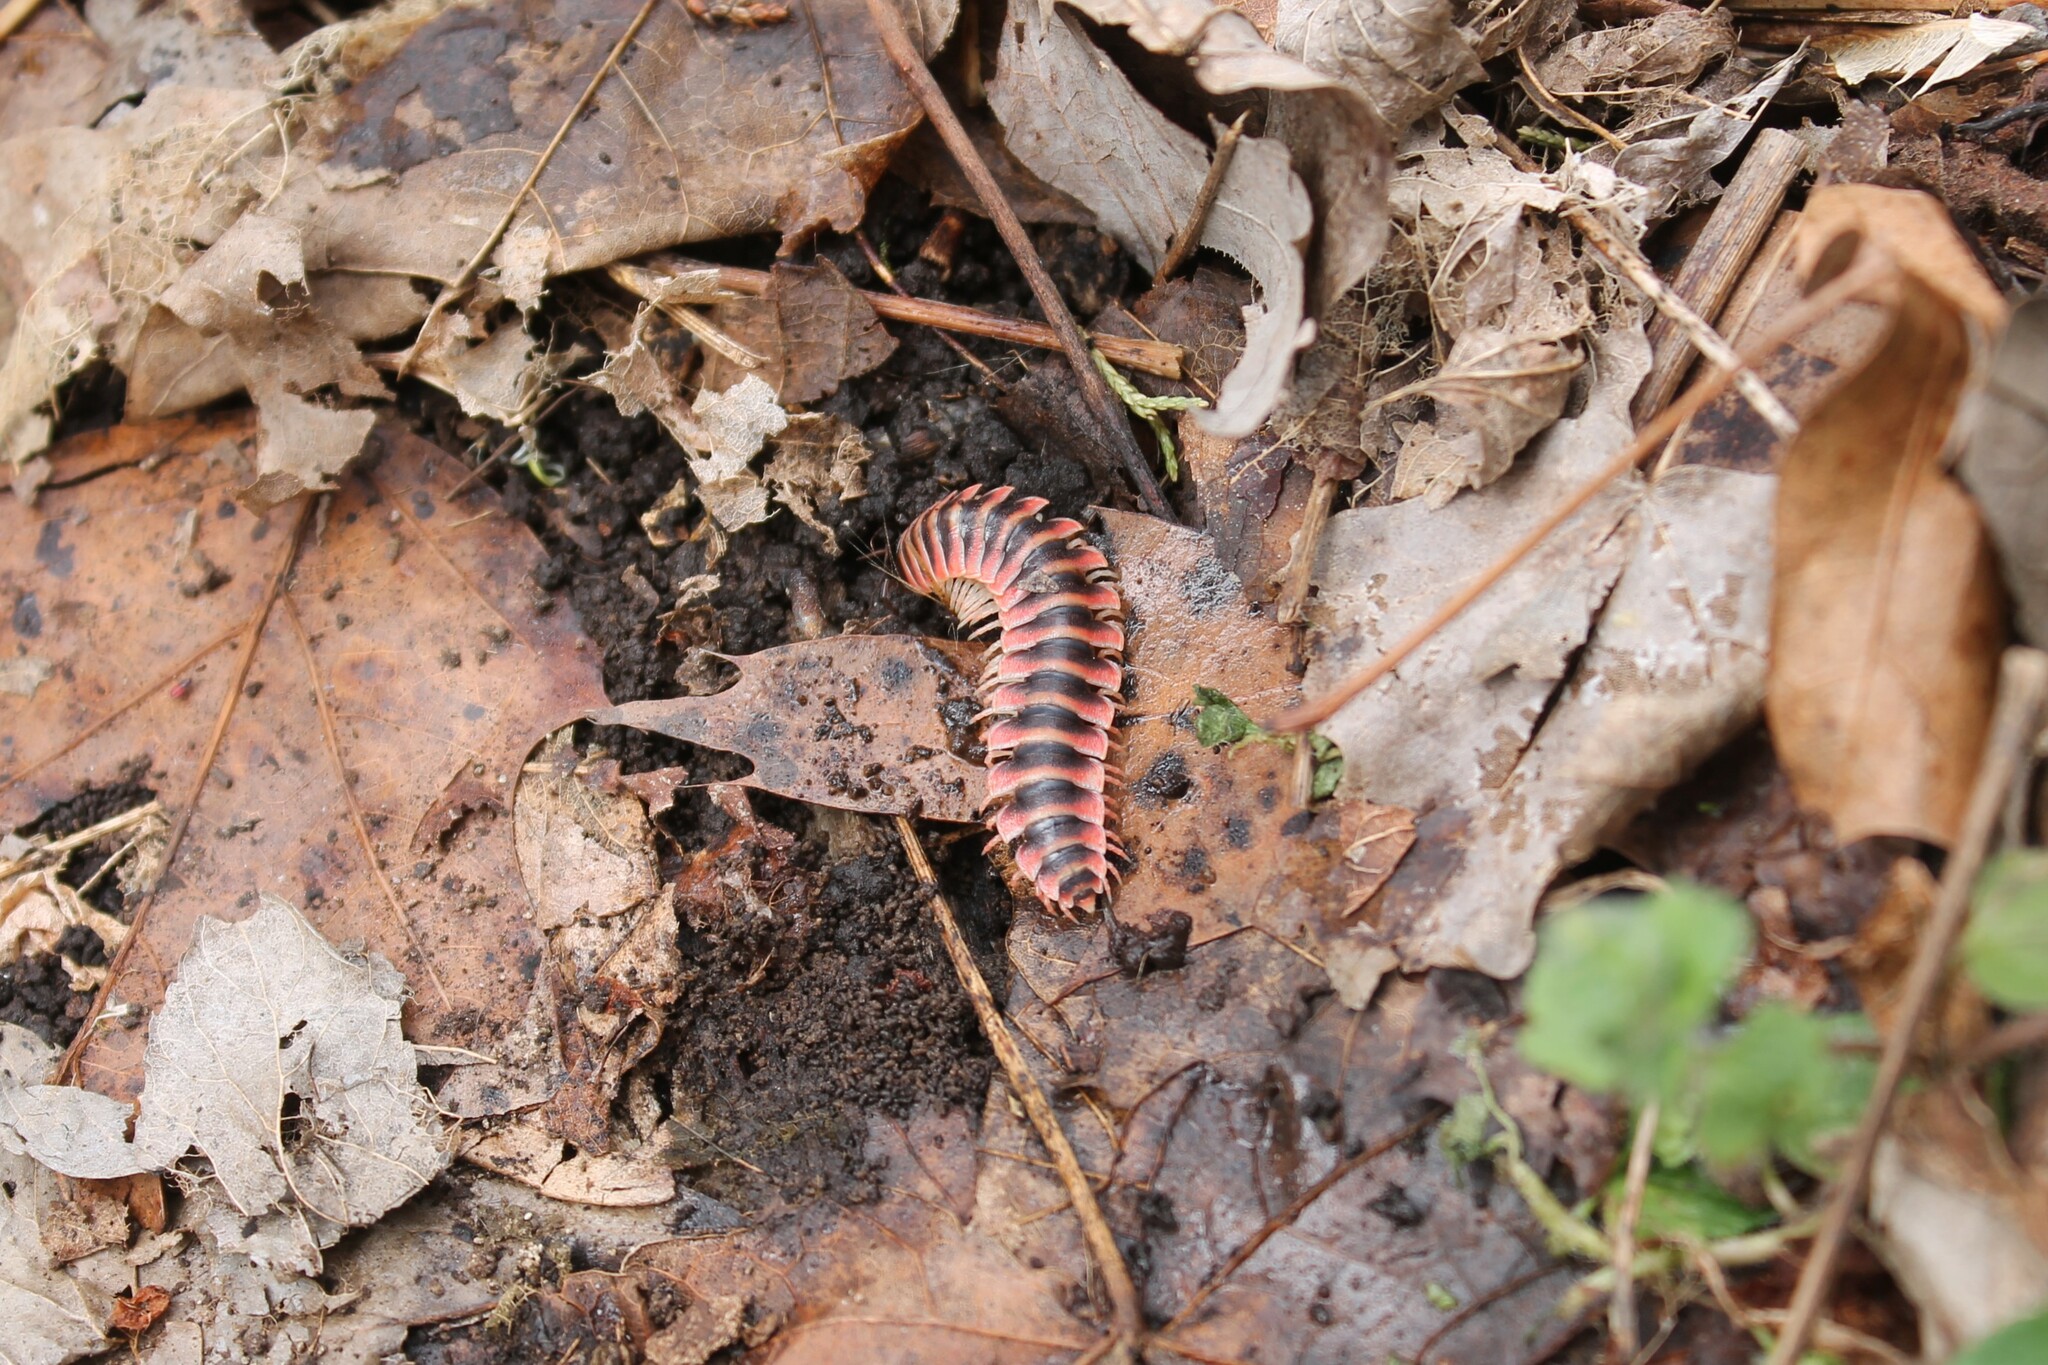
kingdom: Animalia
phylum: Arthropoda
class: Diplopoda
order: Polydesmida
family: Xystodesmidae
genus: Cherokia
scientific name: Cherokia georgiana
